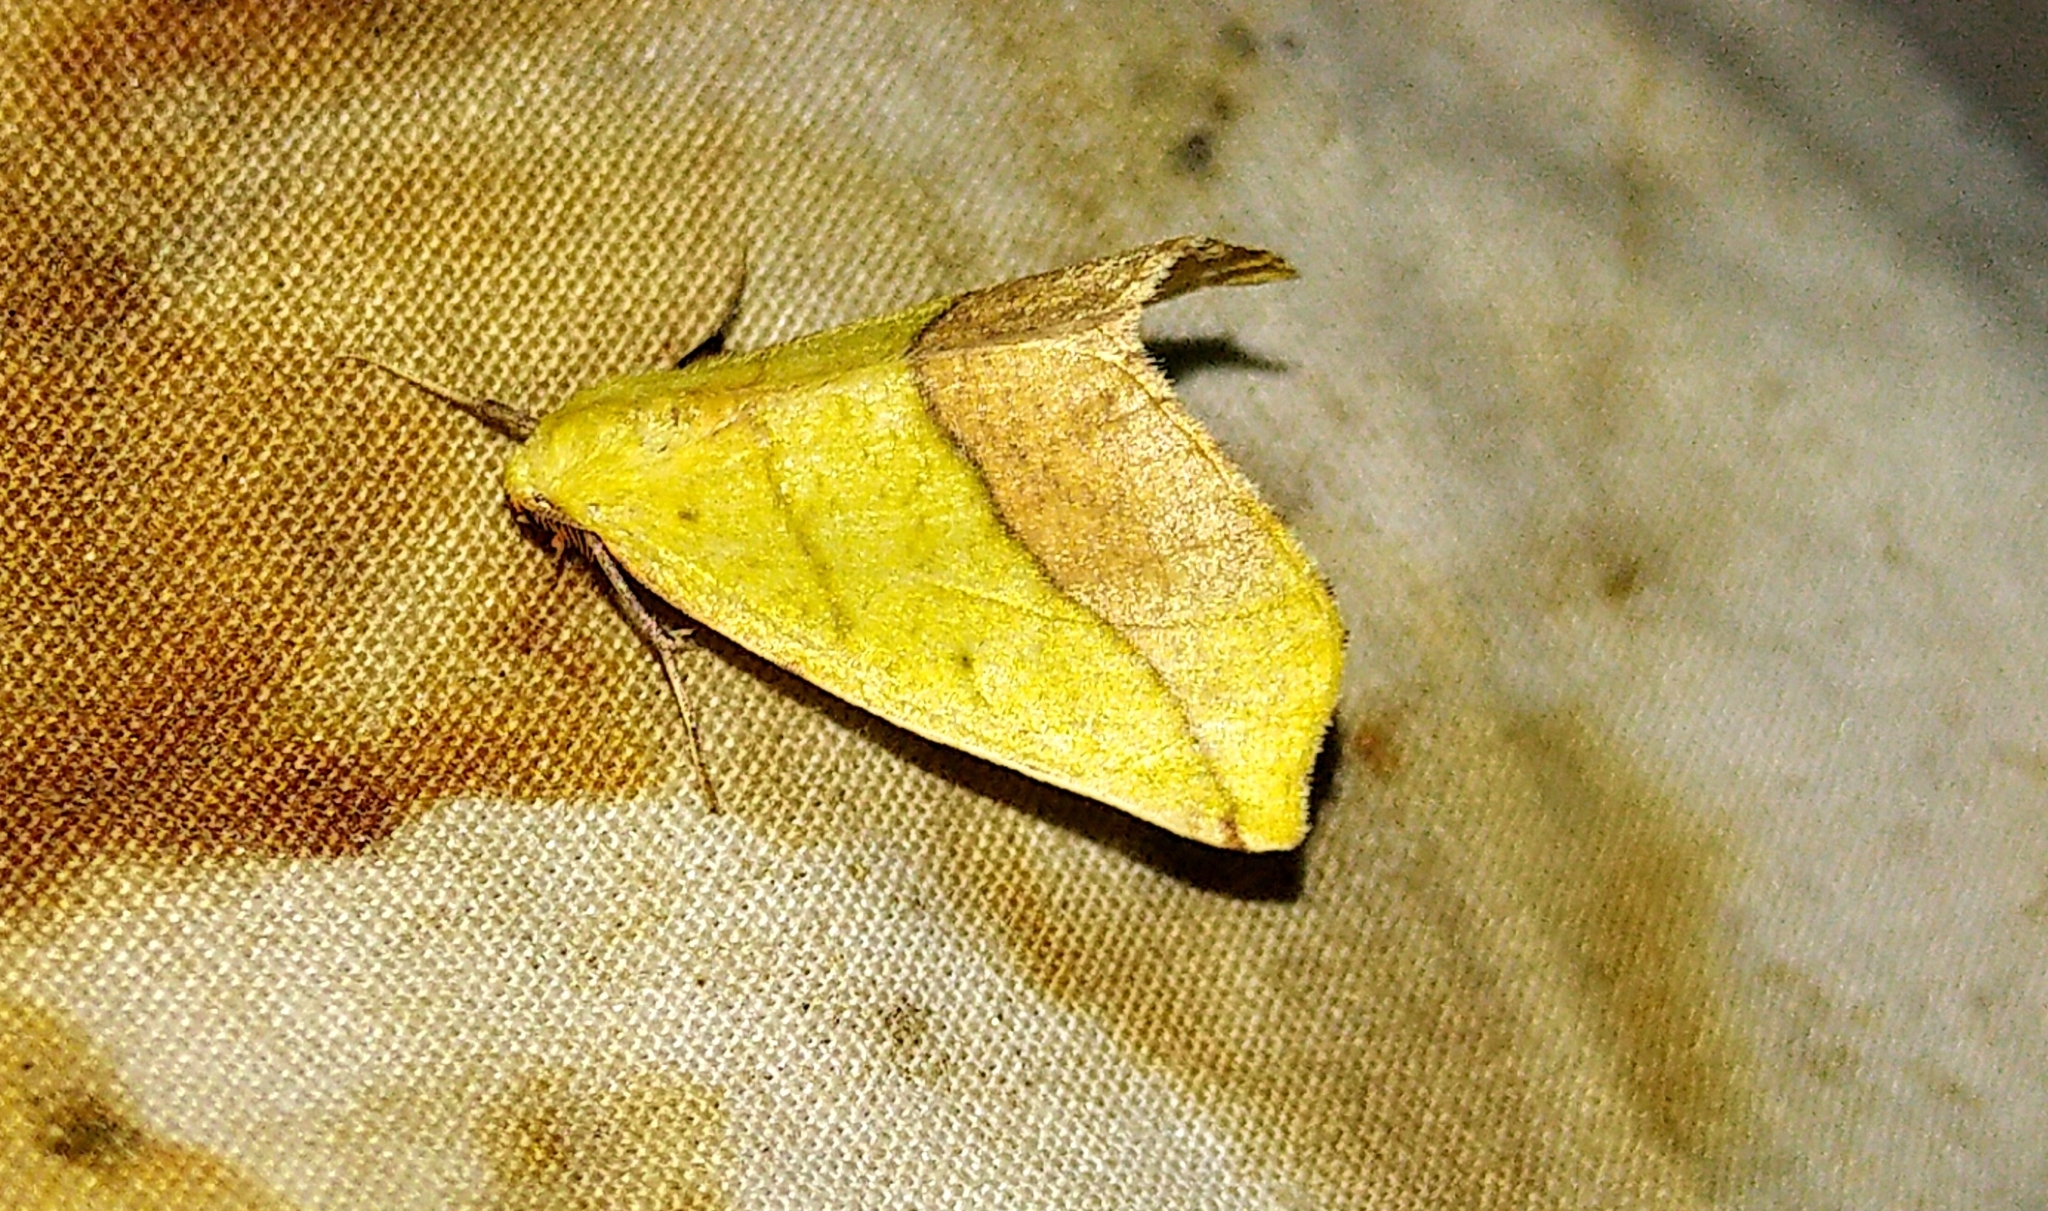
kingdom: Animalia
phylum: Arthropoda
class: Insecta
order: Lepidoptera
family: Geometridae
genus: Sicya
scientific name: Sicya macularia
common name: Sharp-lined yellow
